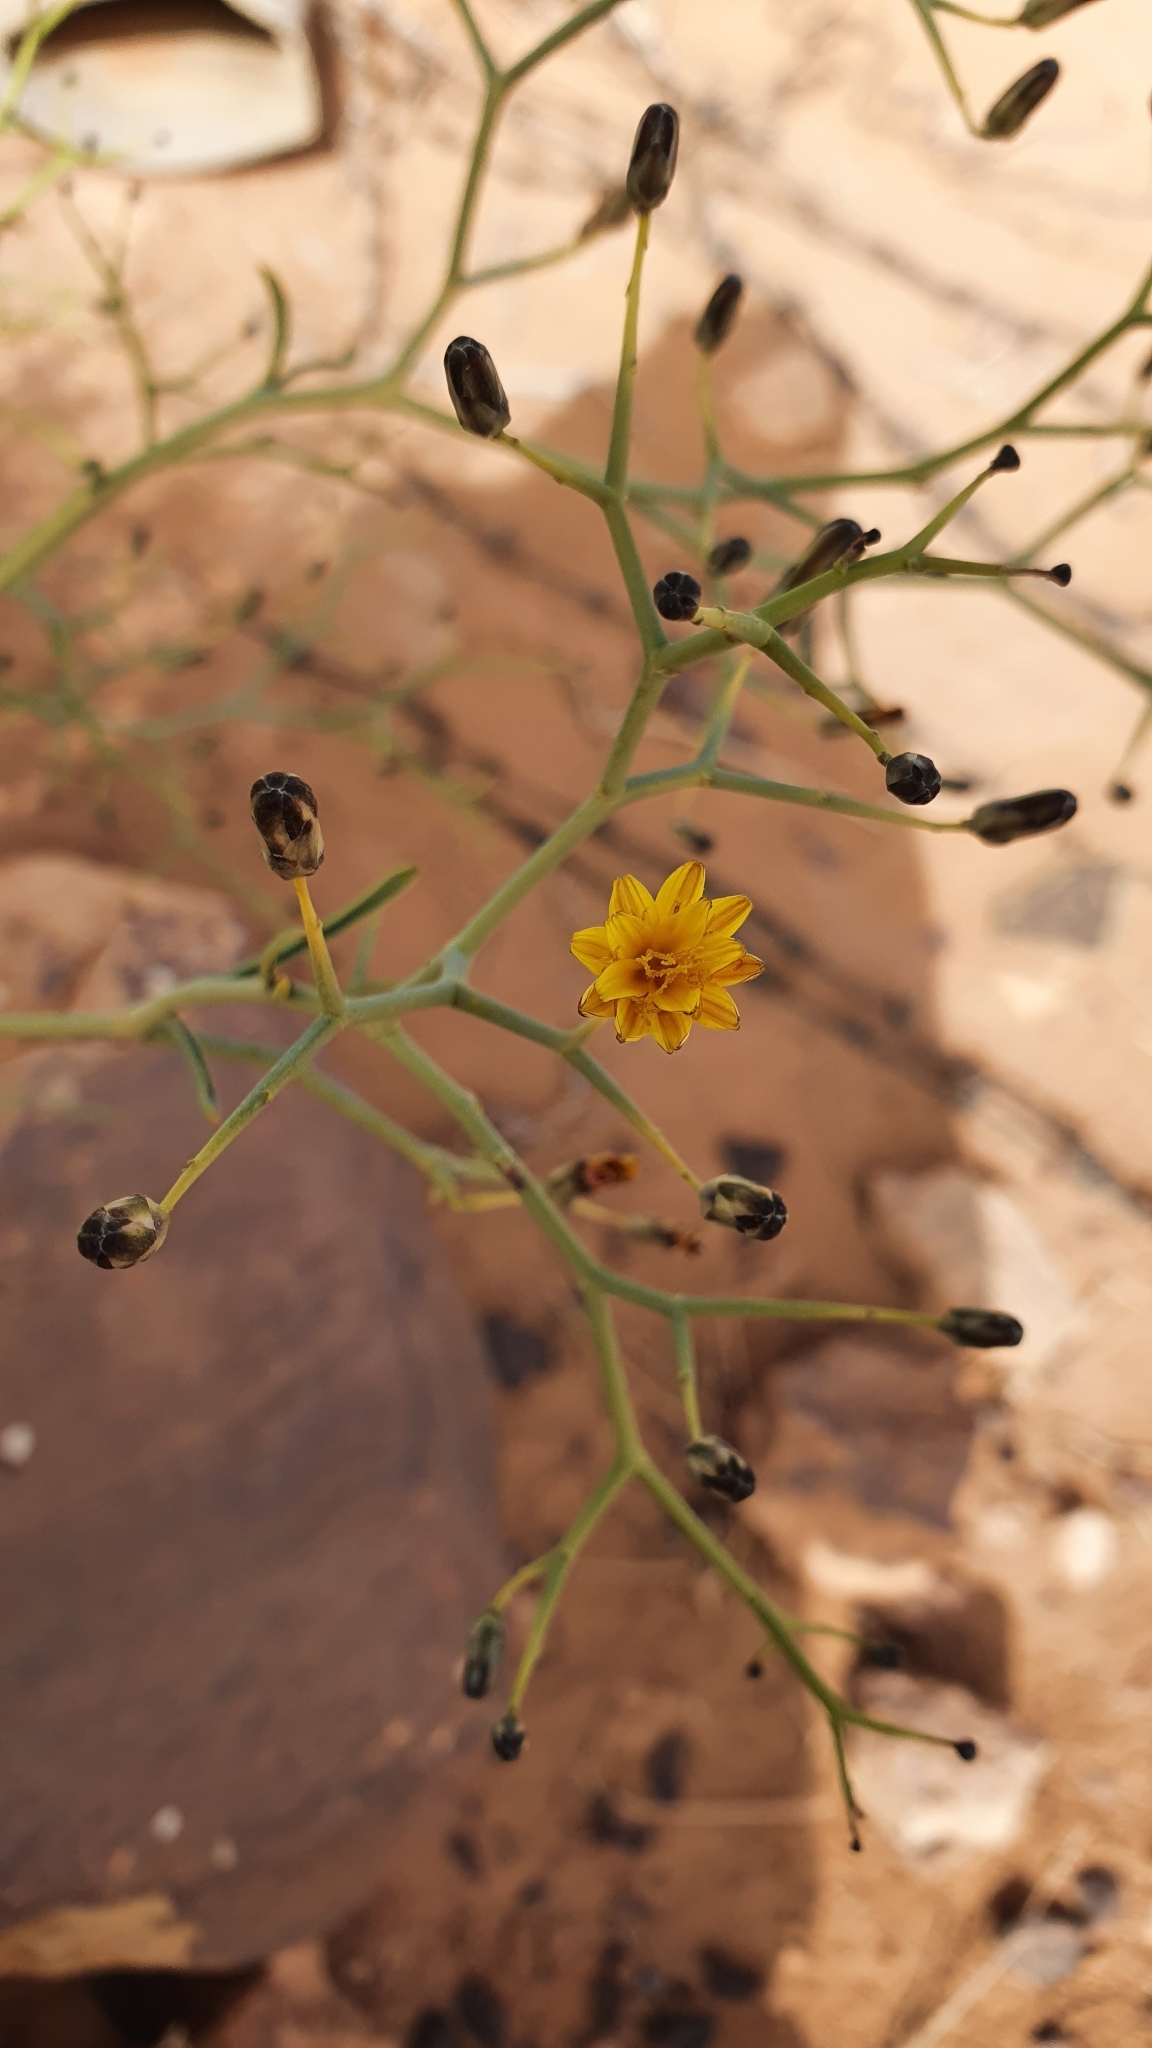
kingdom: Plantae
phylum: Tracheophyta
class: Magnoliopsida
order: Asterales
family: Asteraceae
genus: Launaea
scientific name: Launaea arborescens
